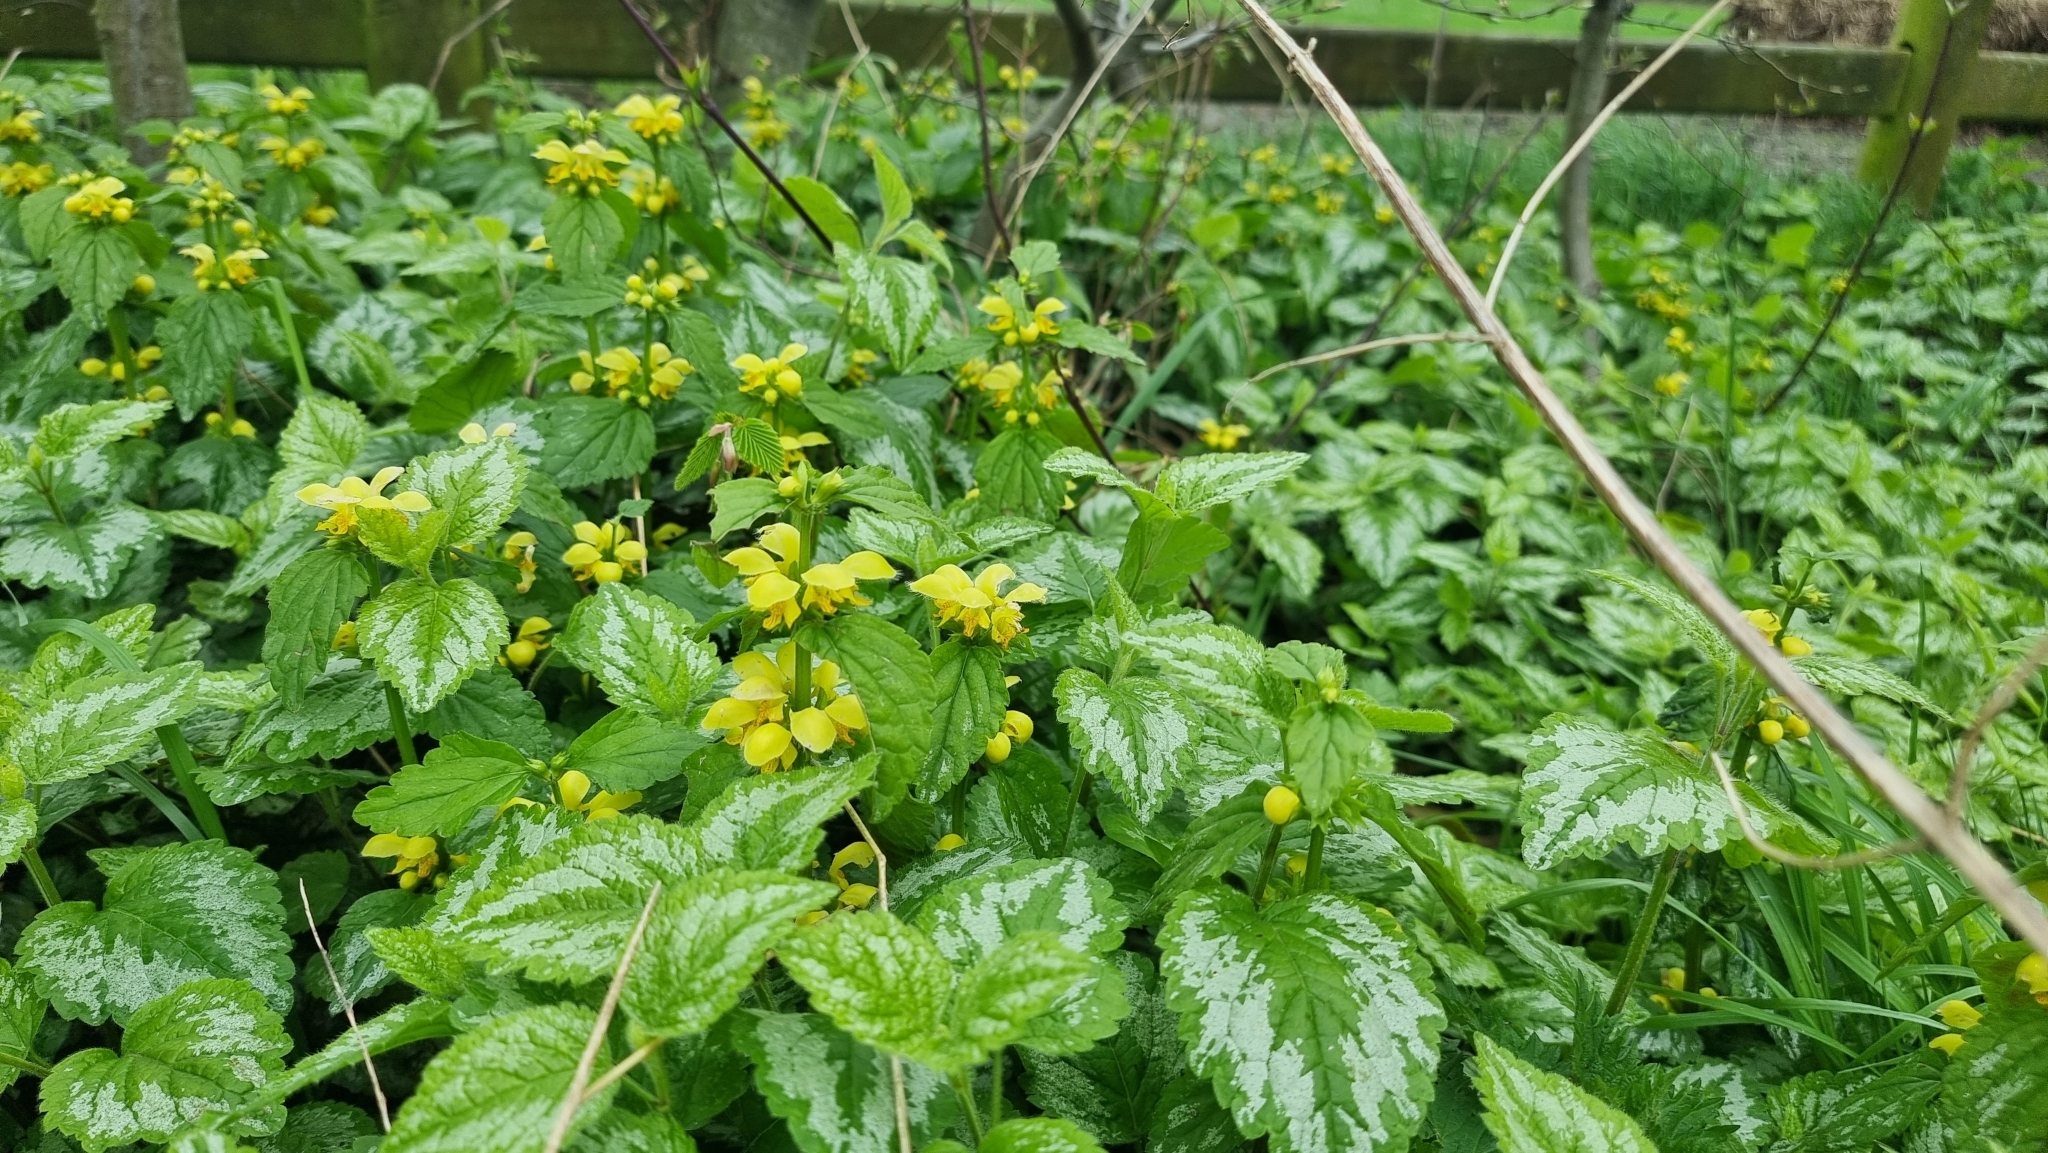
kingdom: Plantae
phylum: Tracheophyta
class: Magnoliopsida
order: Lamiales
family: Lamiaceae
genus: Lamium
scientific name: Lamium galeobdolon
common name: Yellow archangel
